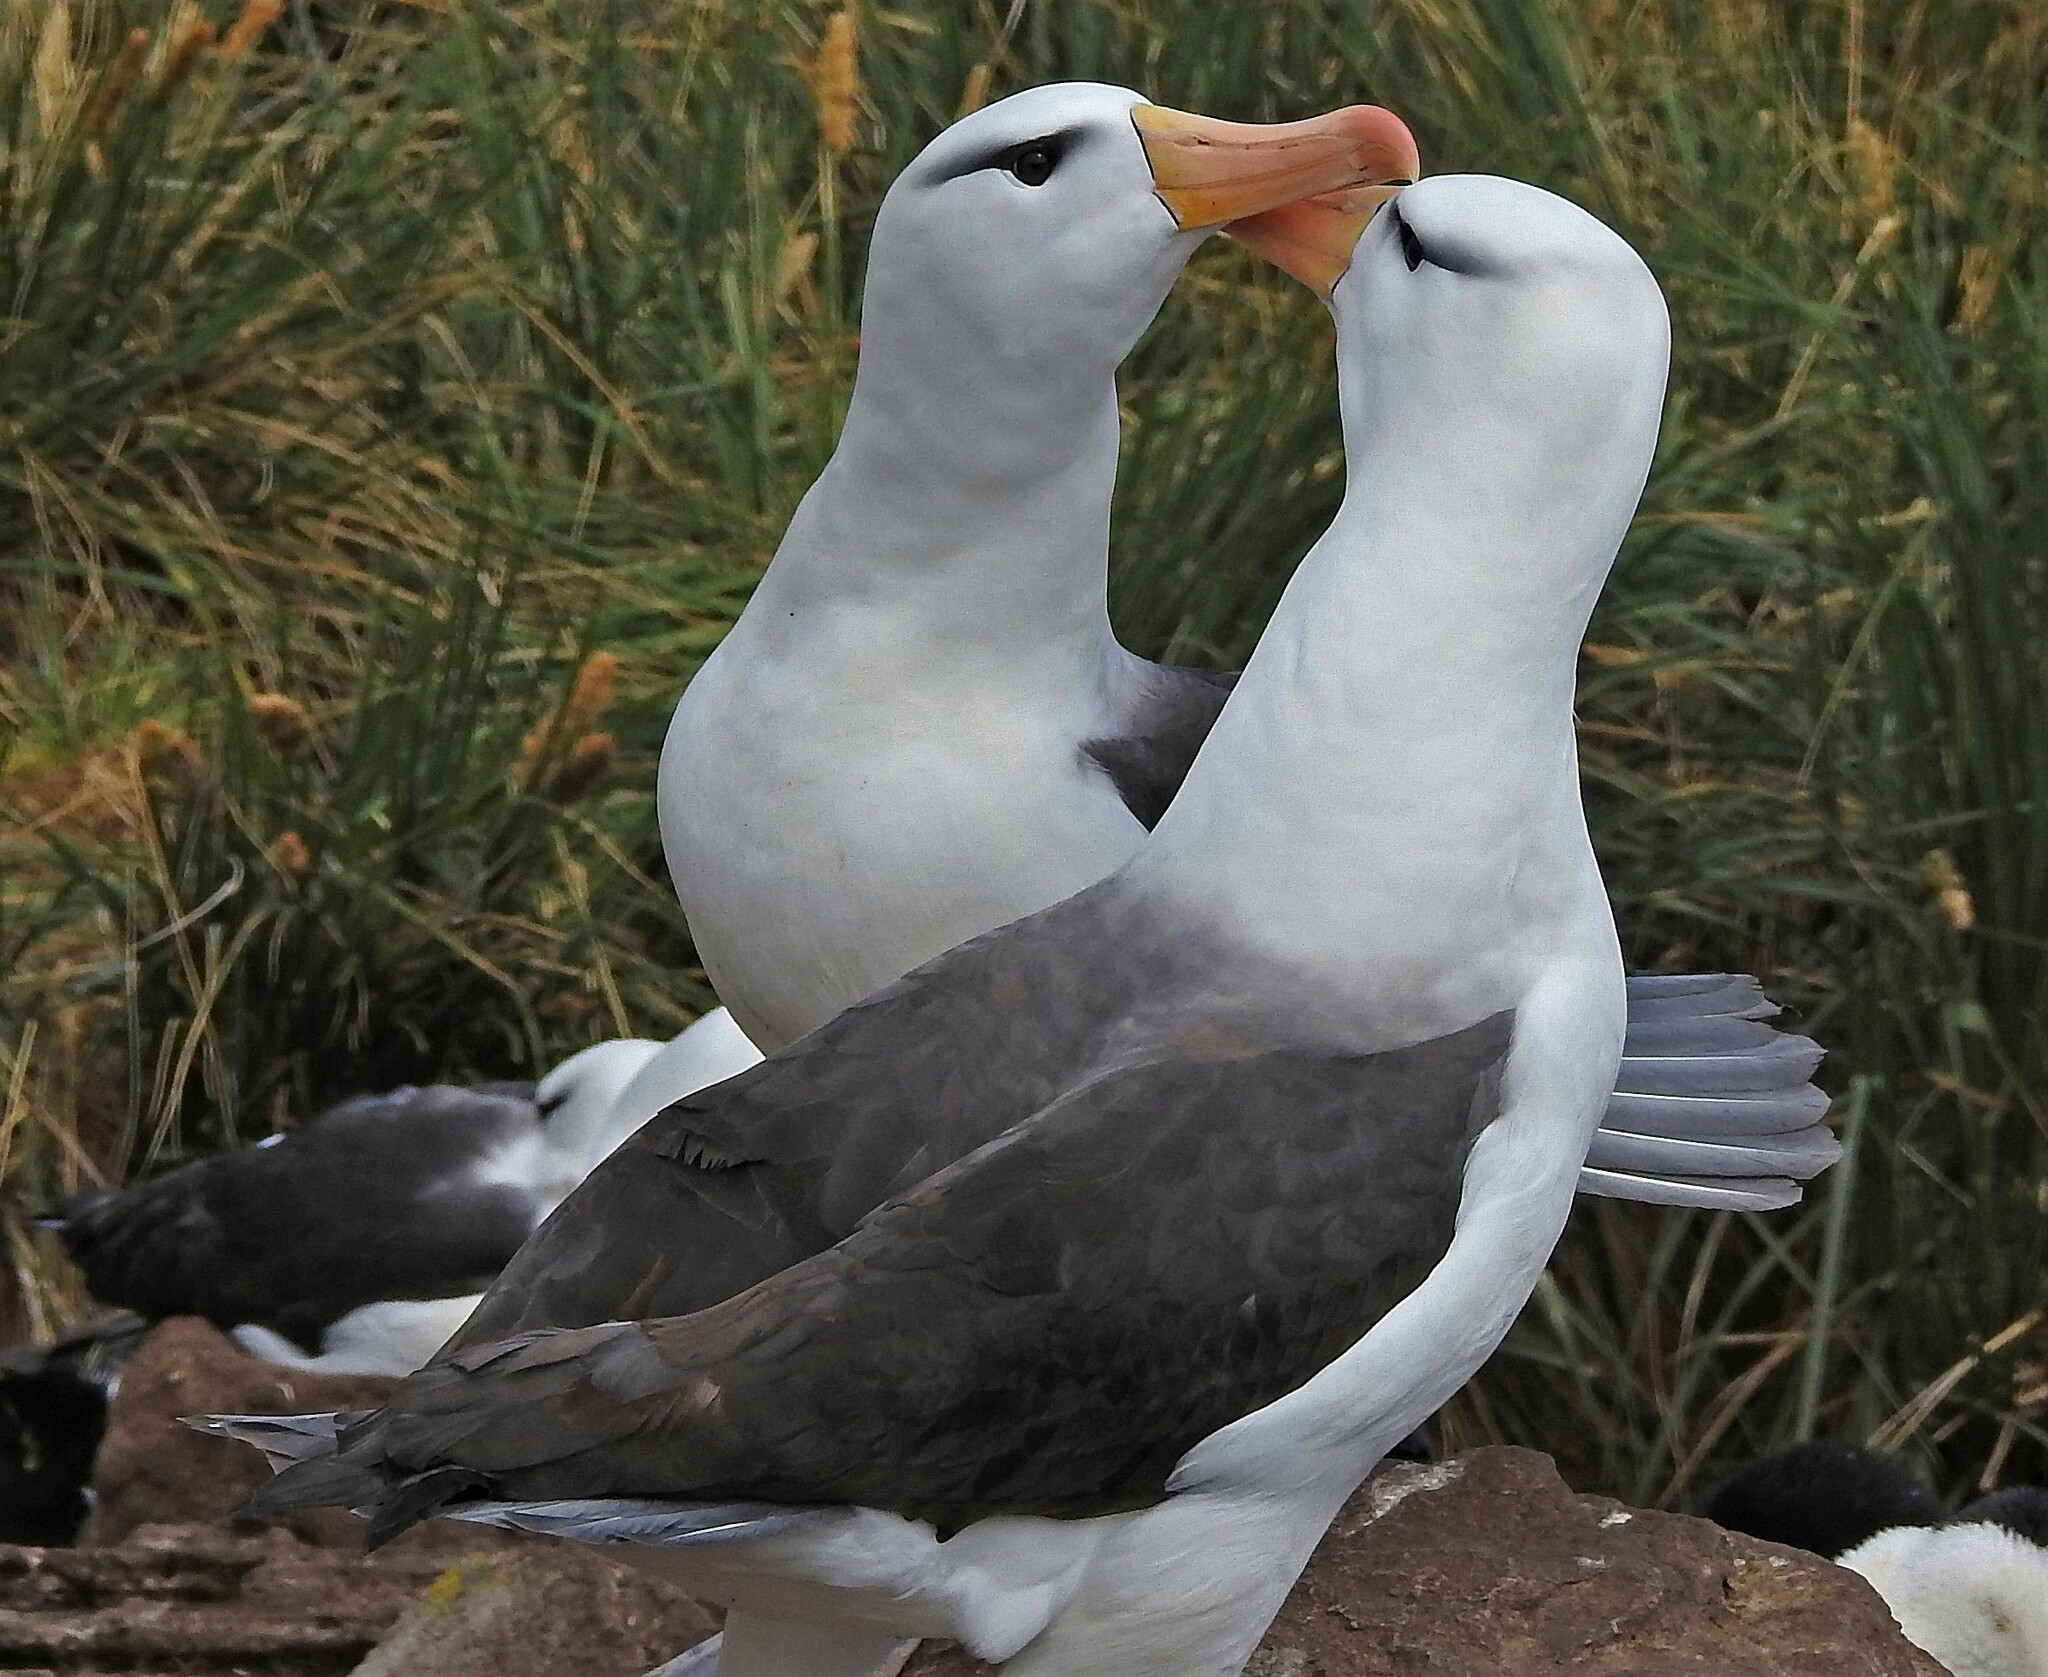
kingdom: Animalia
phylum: Chordata
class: Aves
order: Procellariiformes
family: Diomedeidae
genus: Thalassarche
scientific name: Thalassarche melanophris
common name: Black-browed albatross
